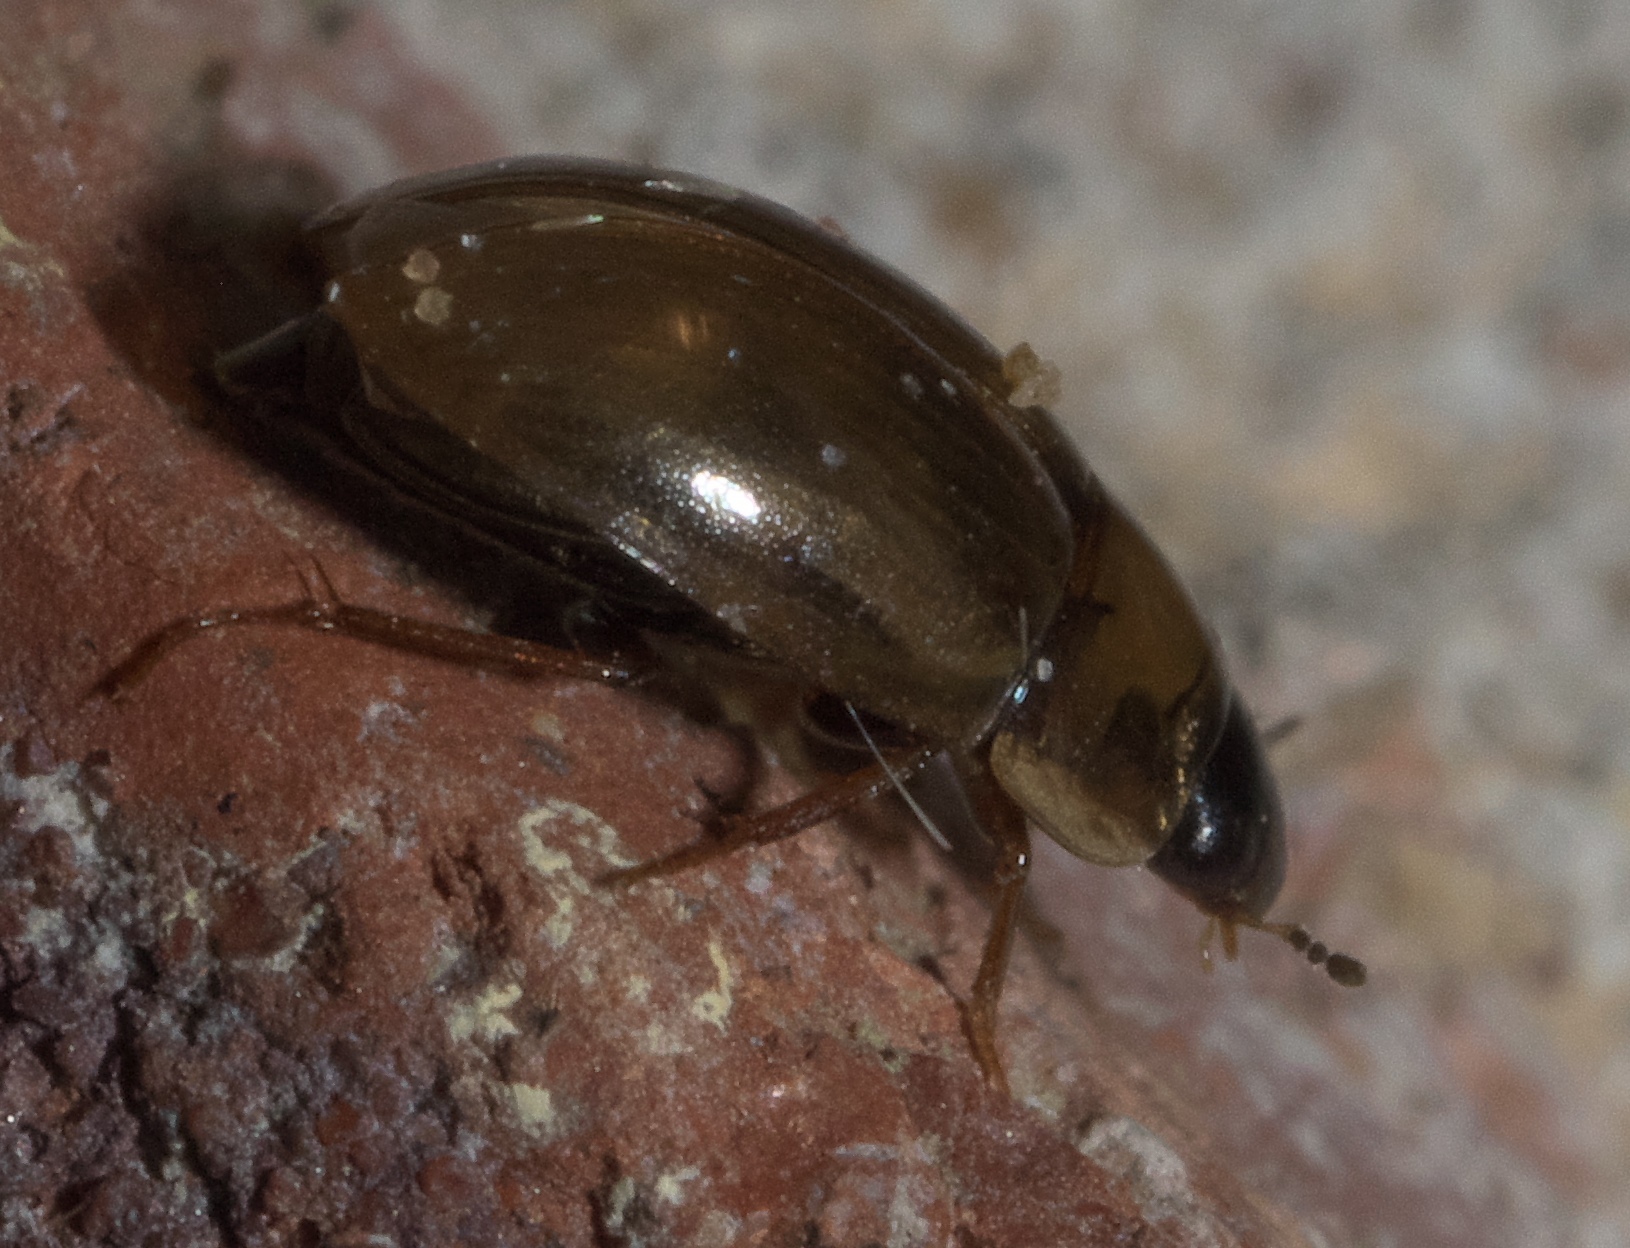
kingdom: Animalia
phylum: Arthropoda
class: Insecta
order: Coleoptera
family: Hydrophilidae
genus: Enochrus
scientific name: Enochrus
